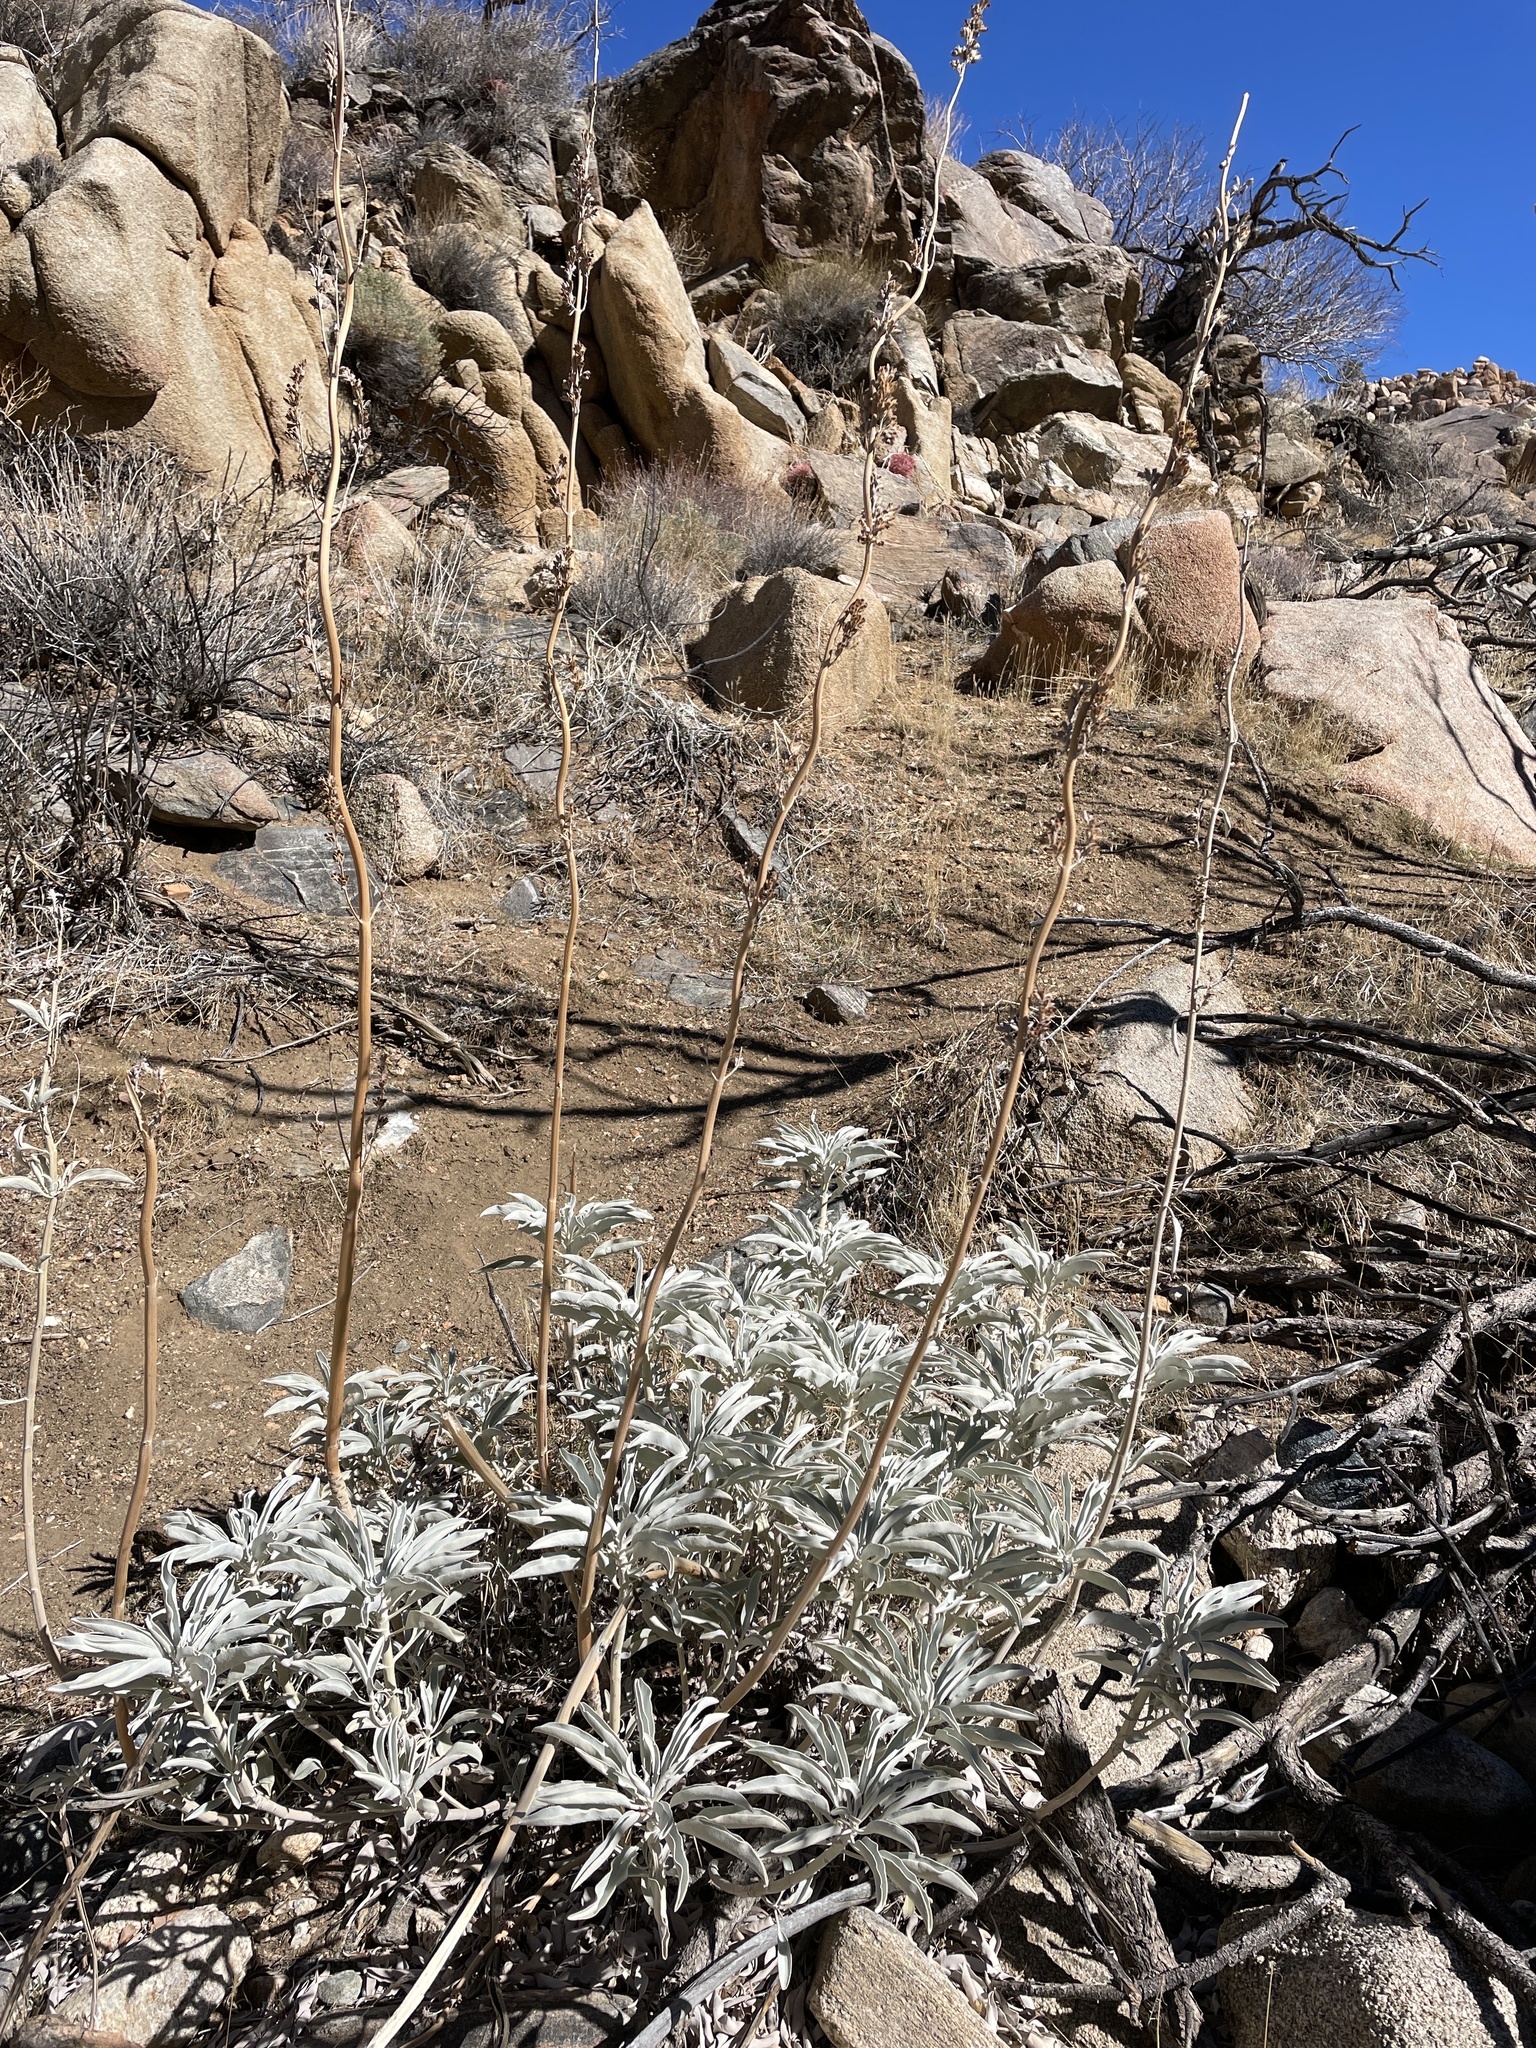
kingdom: Plantae
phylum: Tracheophyta
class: Magnoliopsida
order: Lamiales
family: Lamiaceae
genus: Salvia
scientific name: Salvia apiana
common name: White sage
